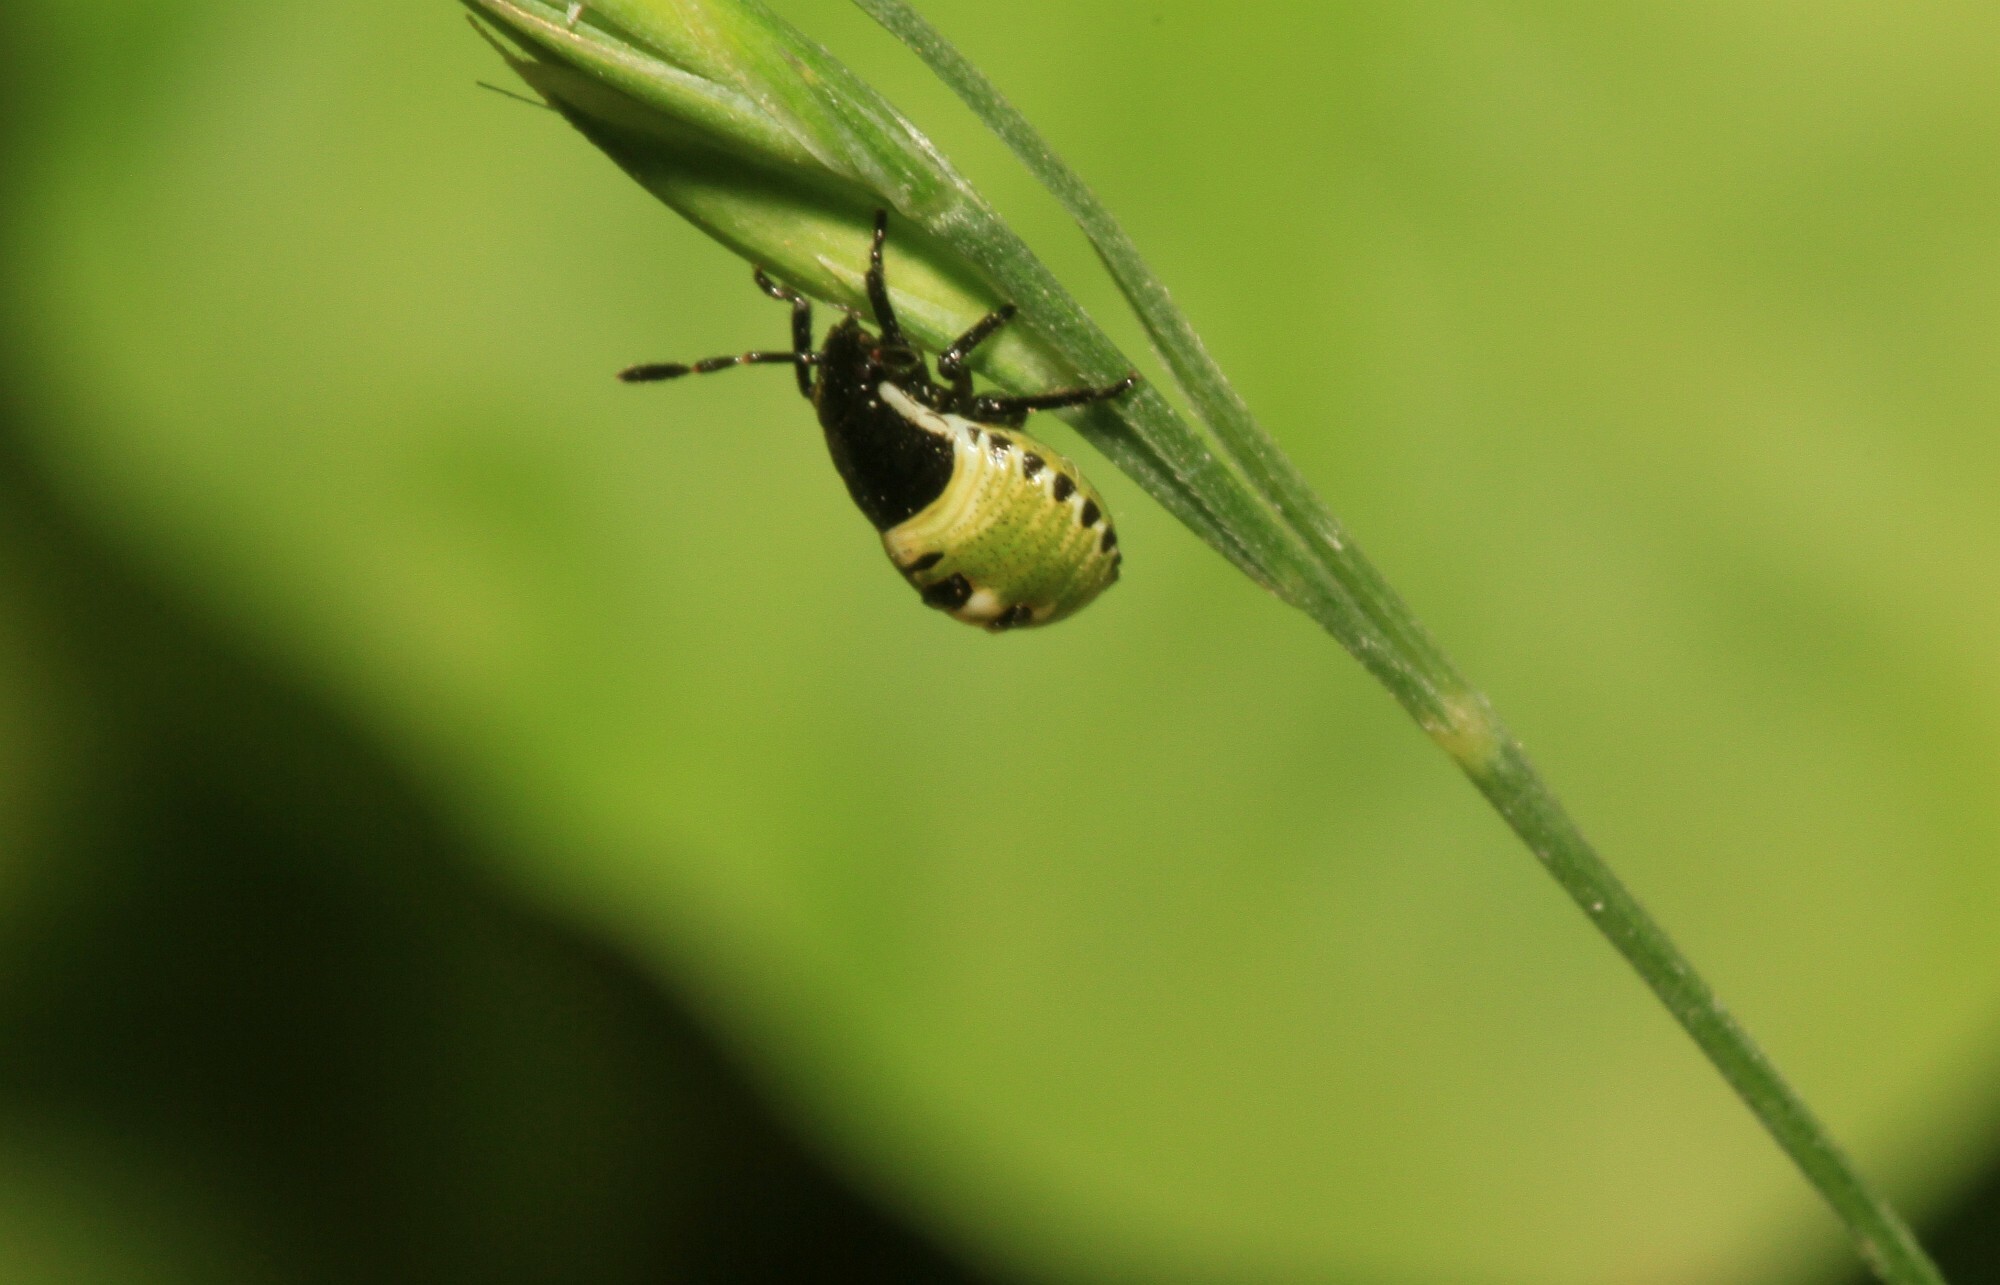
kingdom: Animalia
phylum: Arthropoda
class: Insecta
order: Hemiptera
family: Pentatomidae
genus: Palomena
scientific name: Palomena prasina
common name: Green shieldbug
